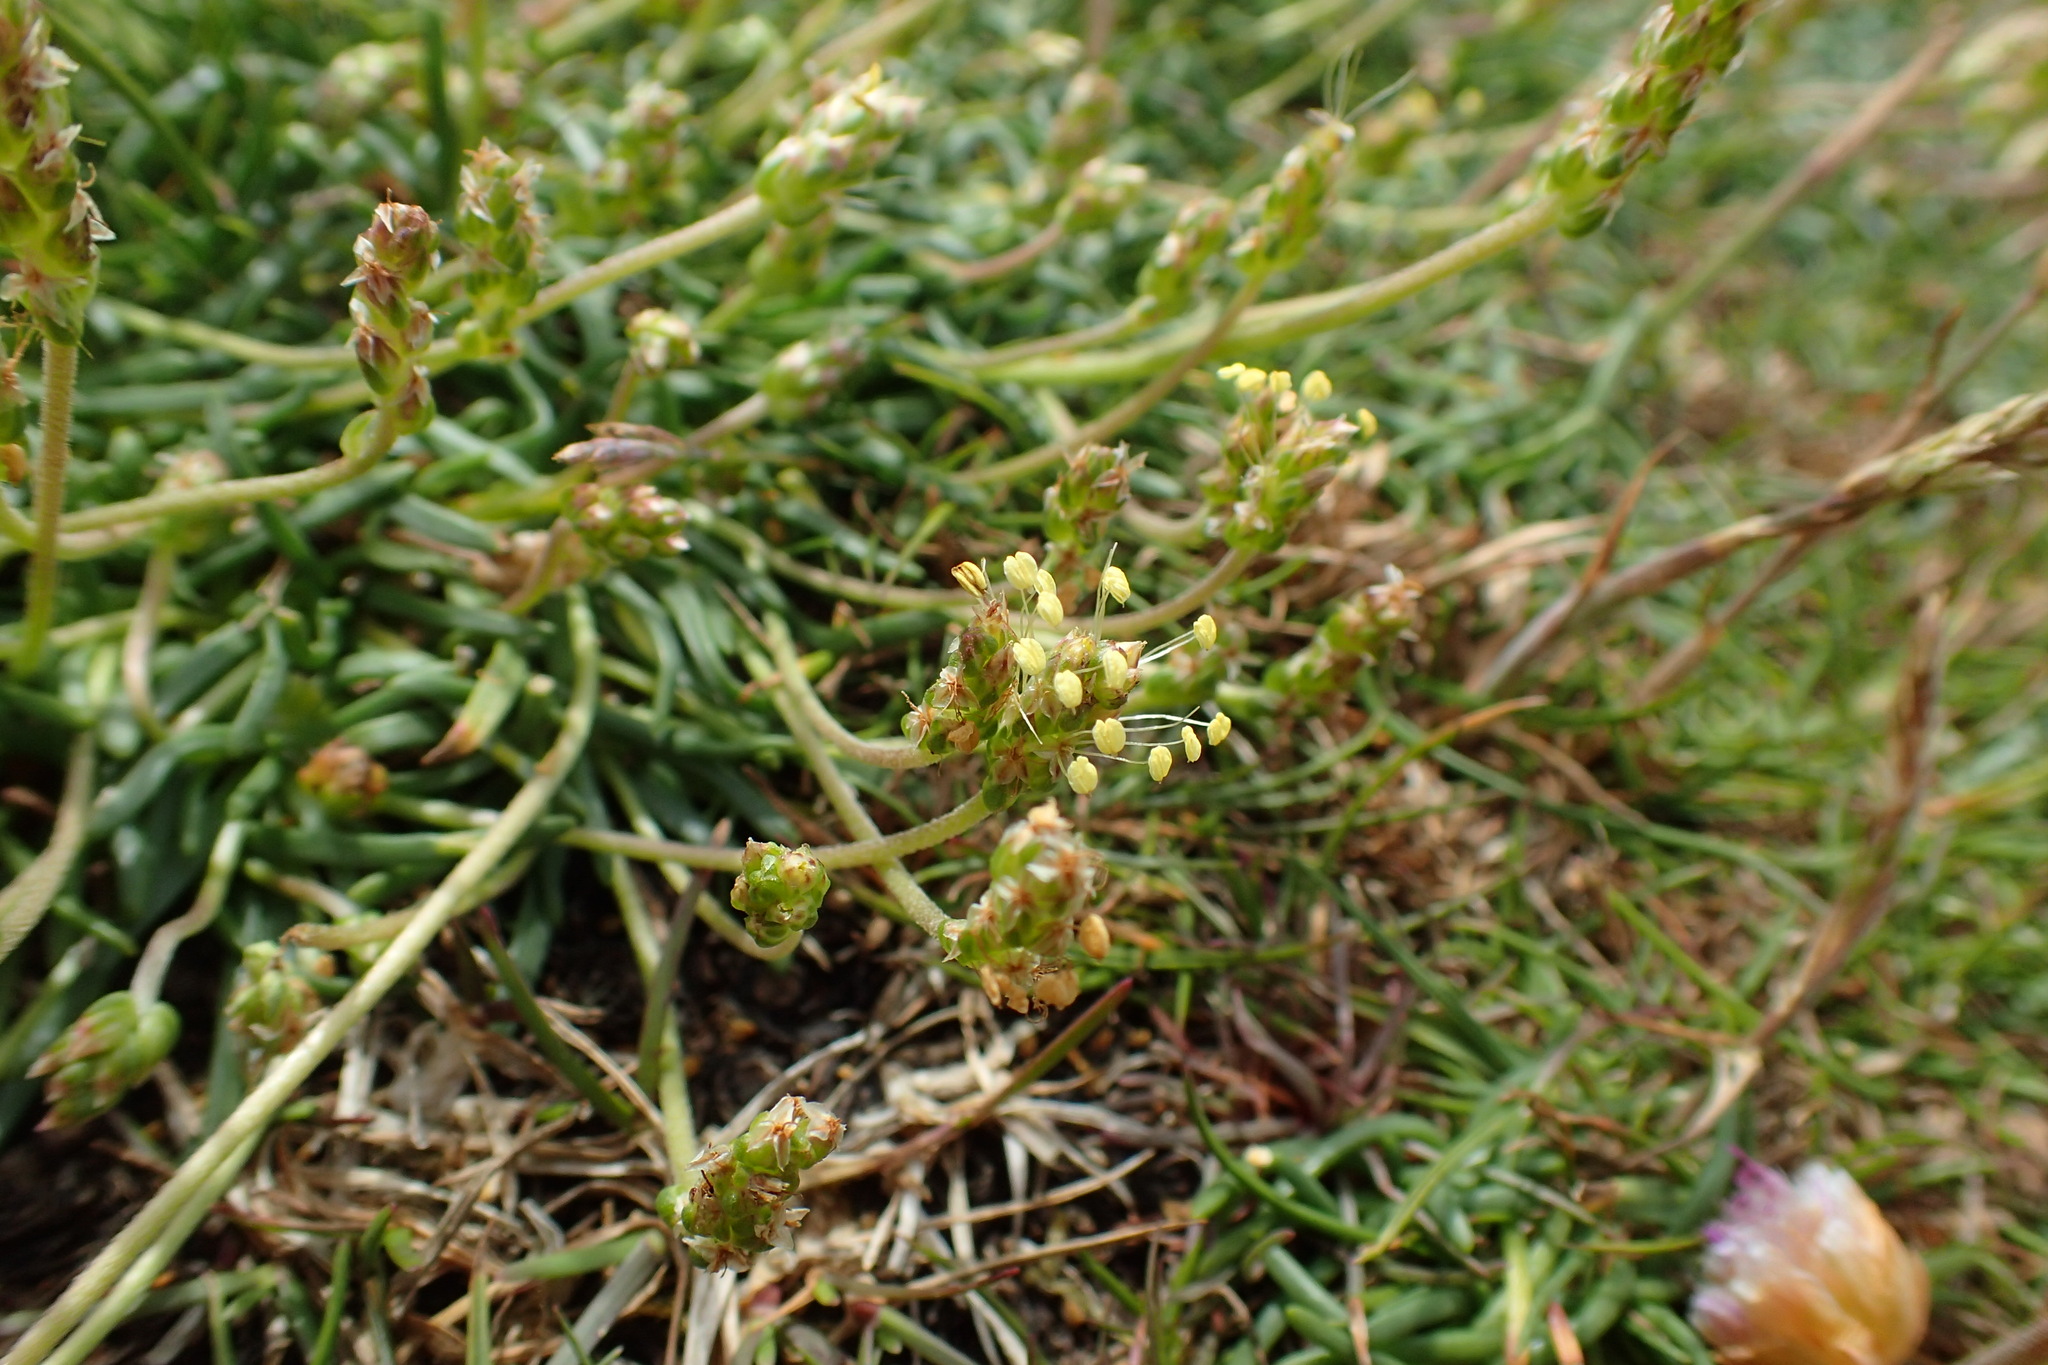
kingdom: Plantae
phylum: Tracheophyta
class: Magnoliopsida
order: Lamiales
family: Plantaginaceae
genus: Plantago
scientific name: Plantago maritima
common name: Sea plantain
